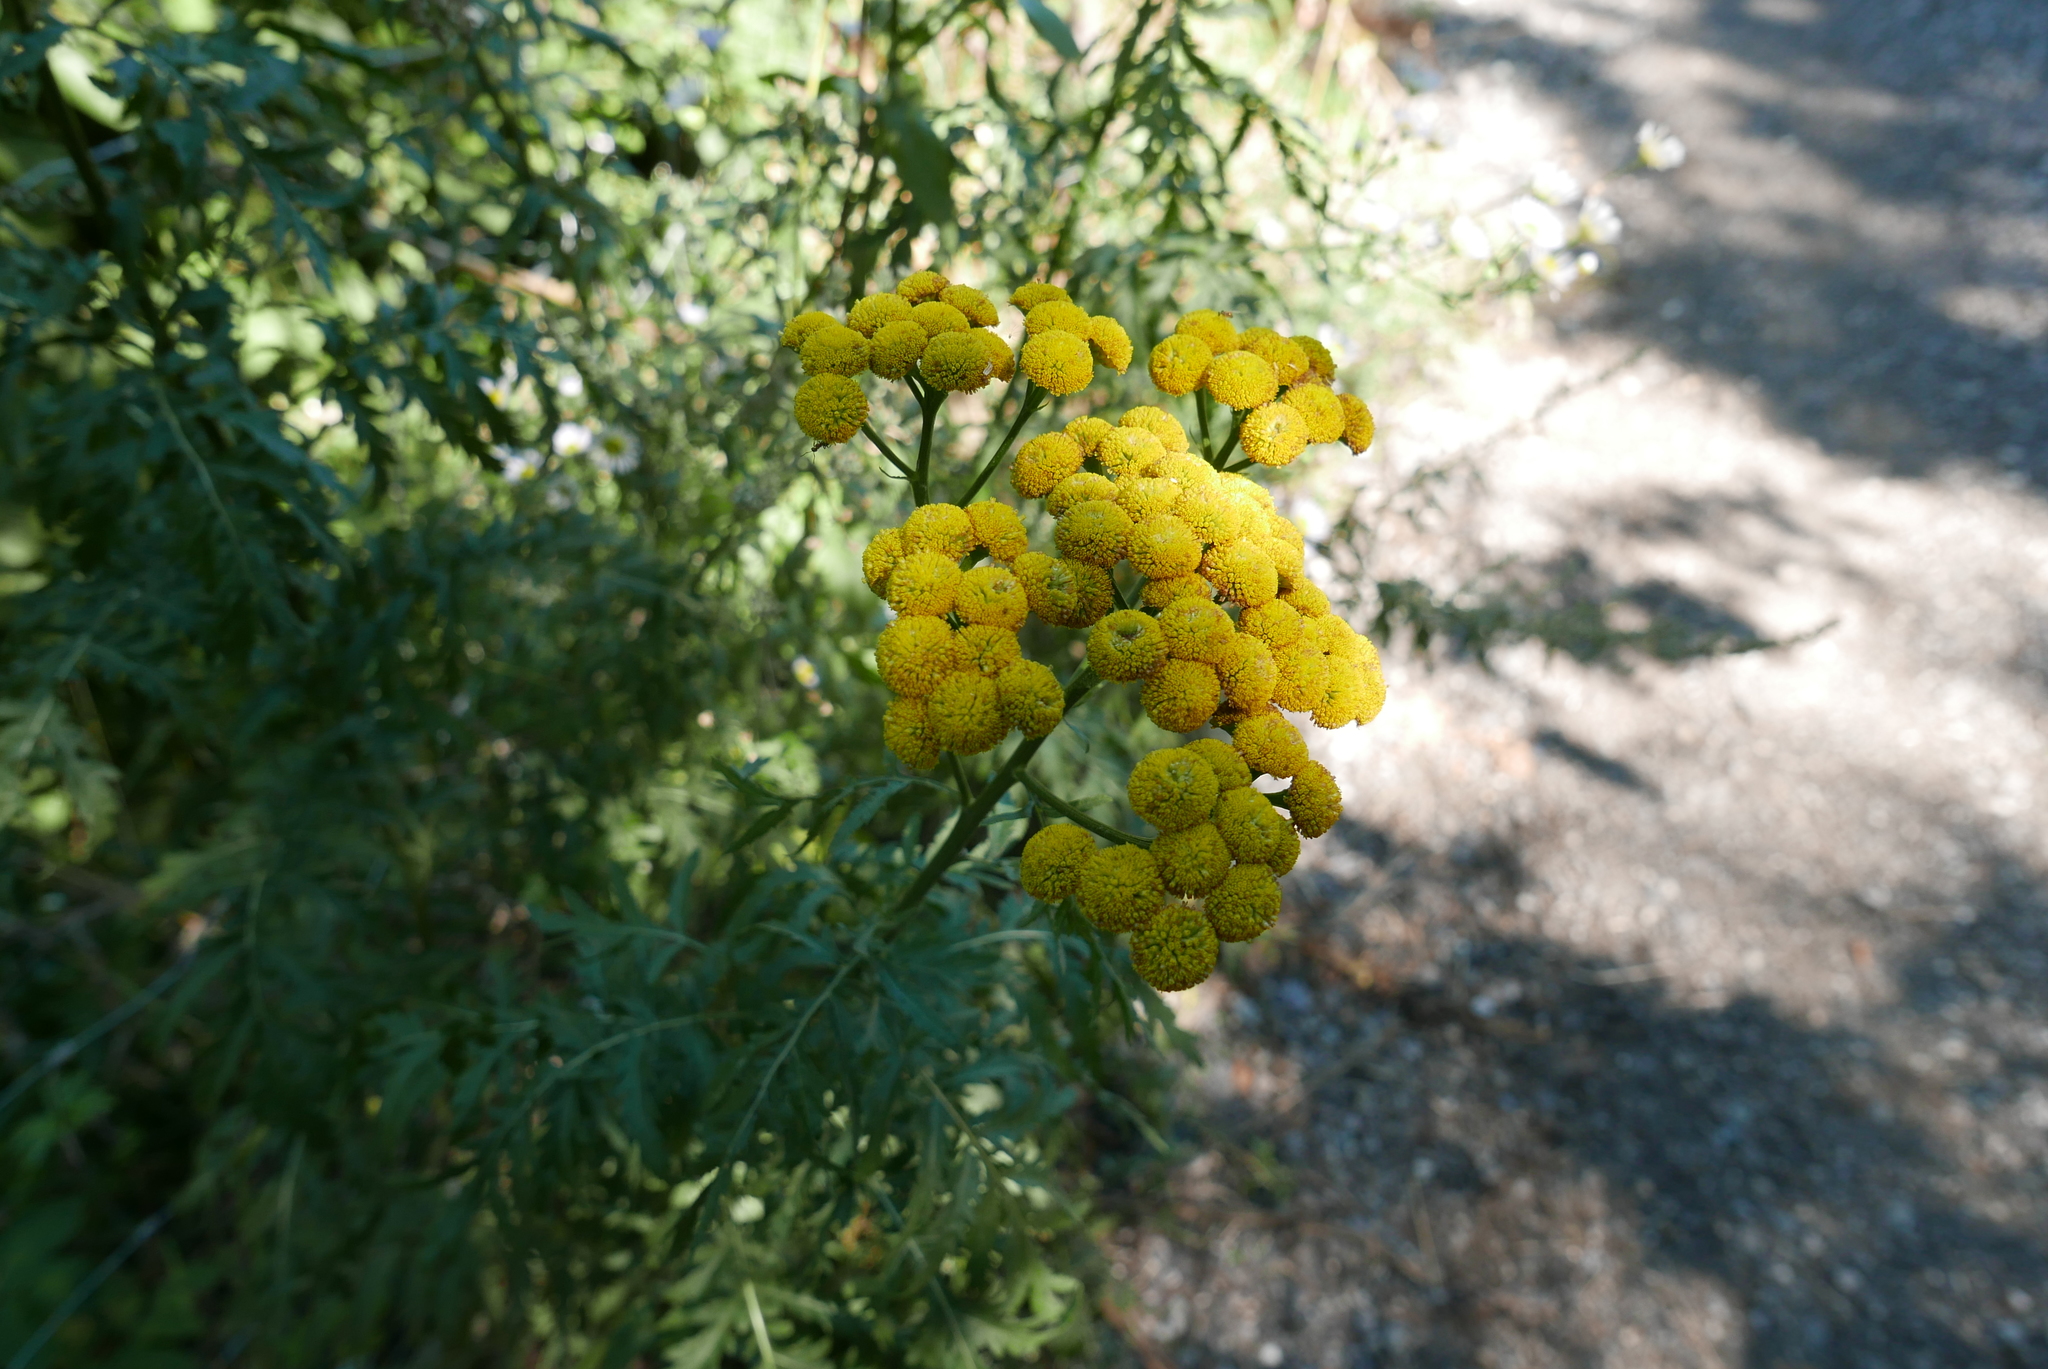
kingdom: Plantae
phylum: Tracheophyta
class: Magnoliopsida
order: Asterales
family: Asteraceae
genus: Tanacetum
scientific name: Tanacetum vulgare
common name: Common tansy
